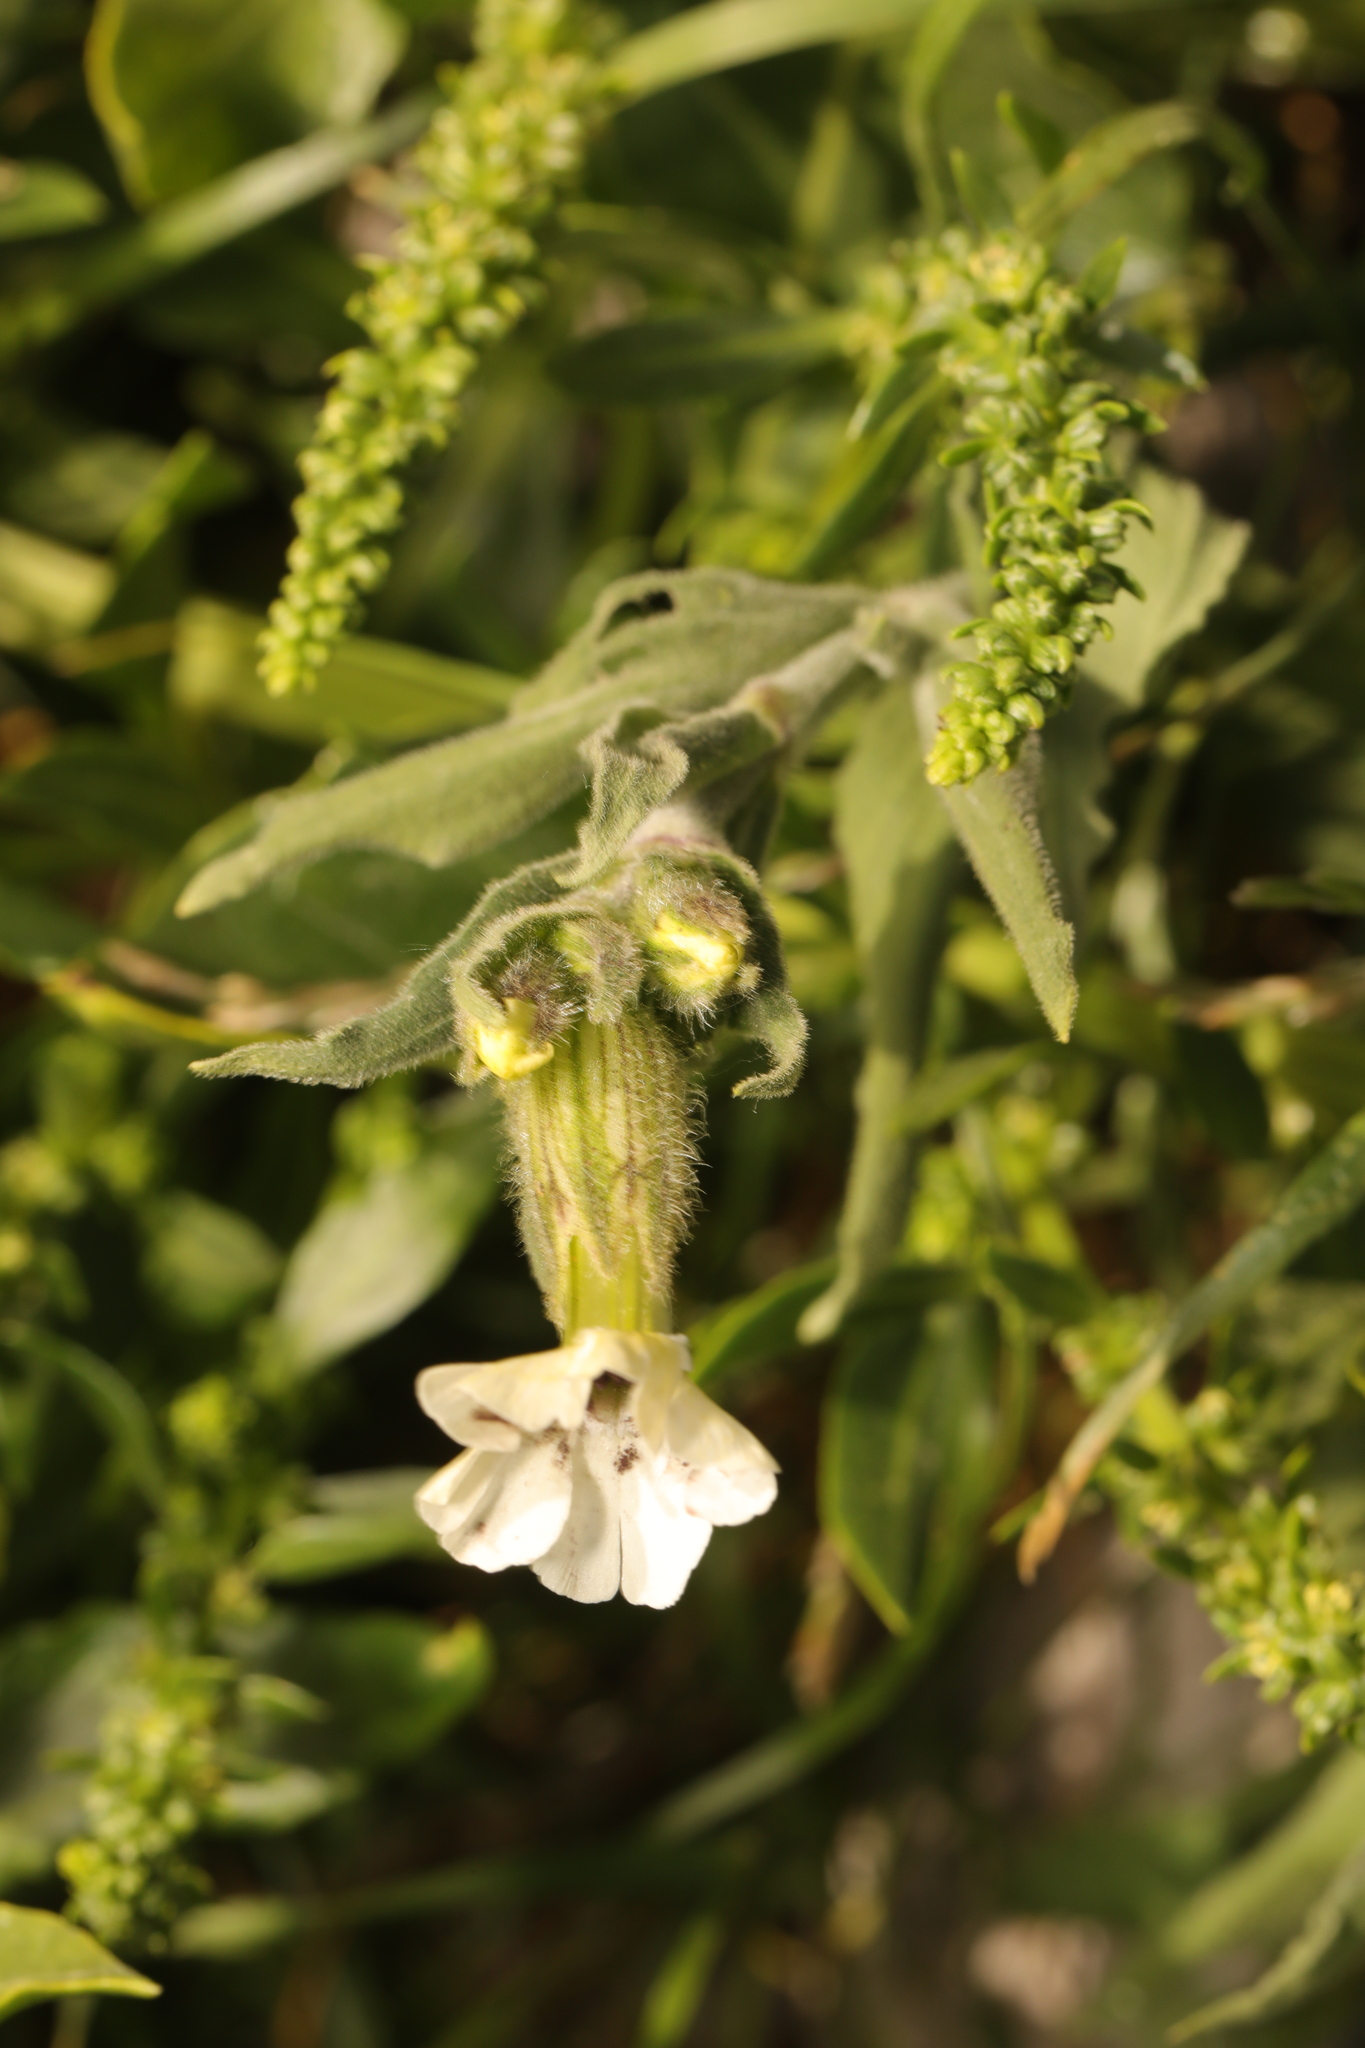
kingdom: Plantae
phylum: Tracheophyta
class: Magnoliopsida
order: Caryophyllales
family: Caryophyllaceae
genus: Silene
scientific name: Silene latifolia
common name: White campion
